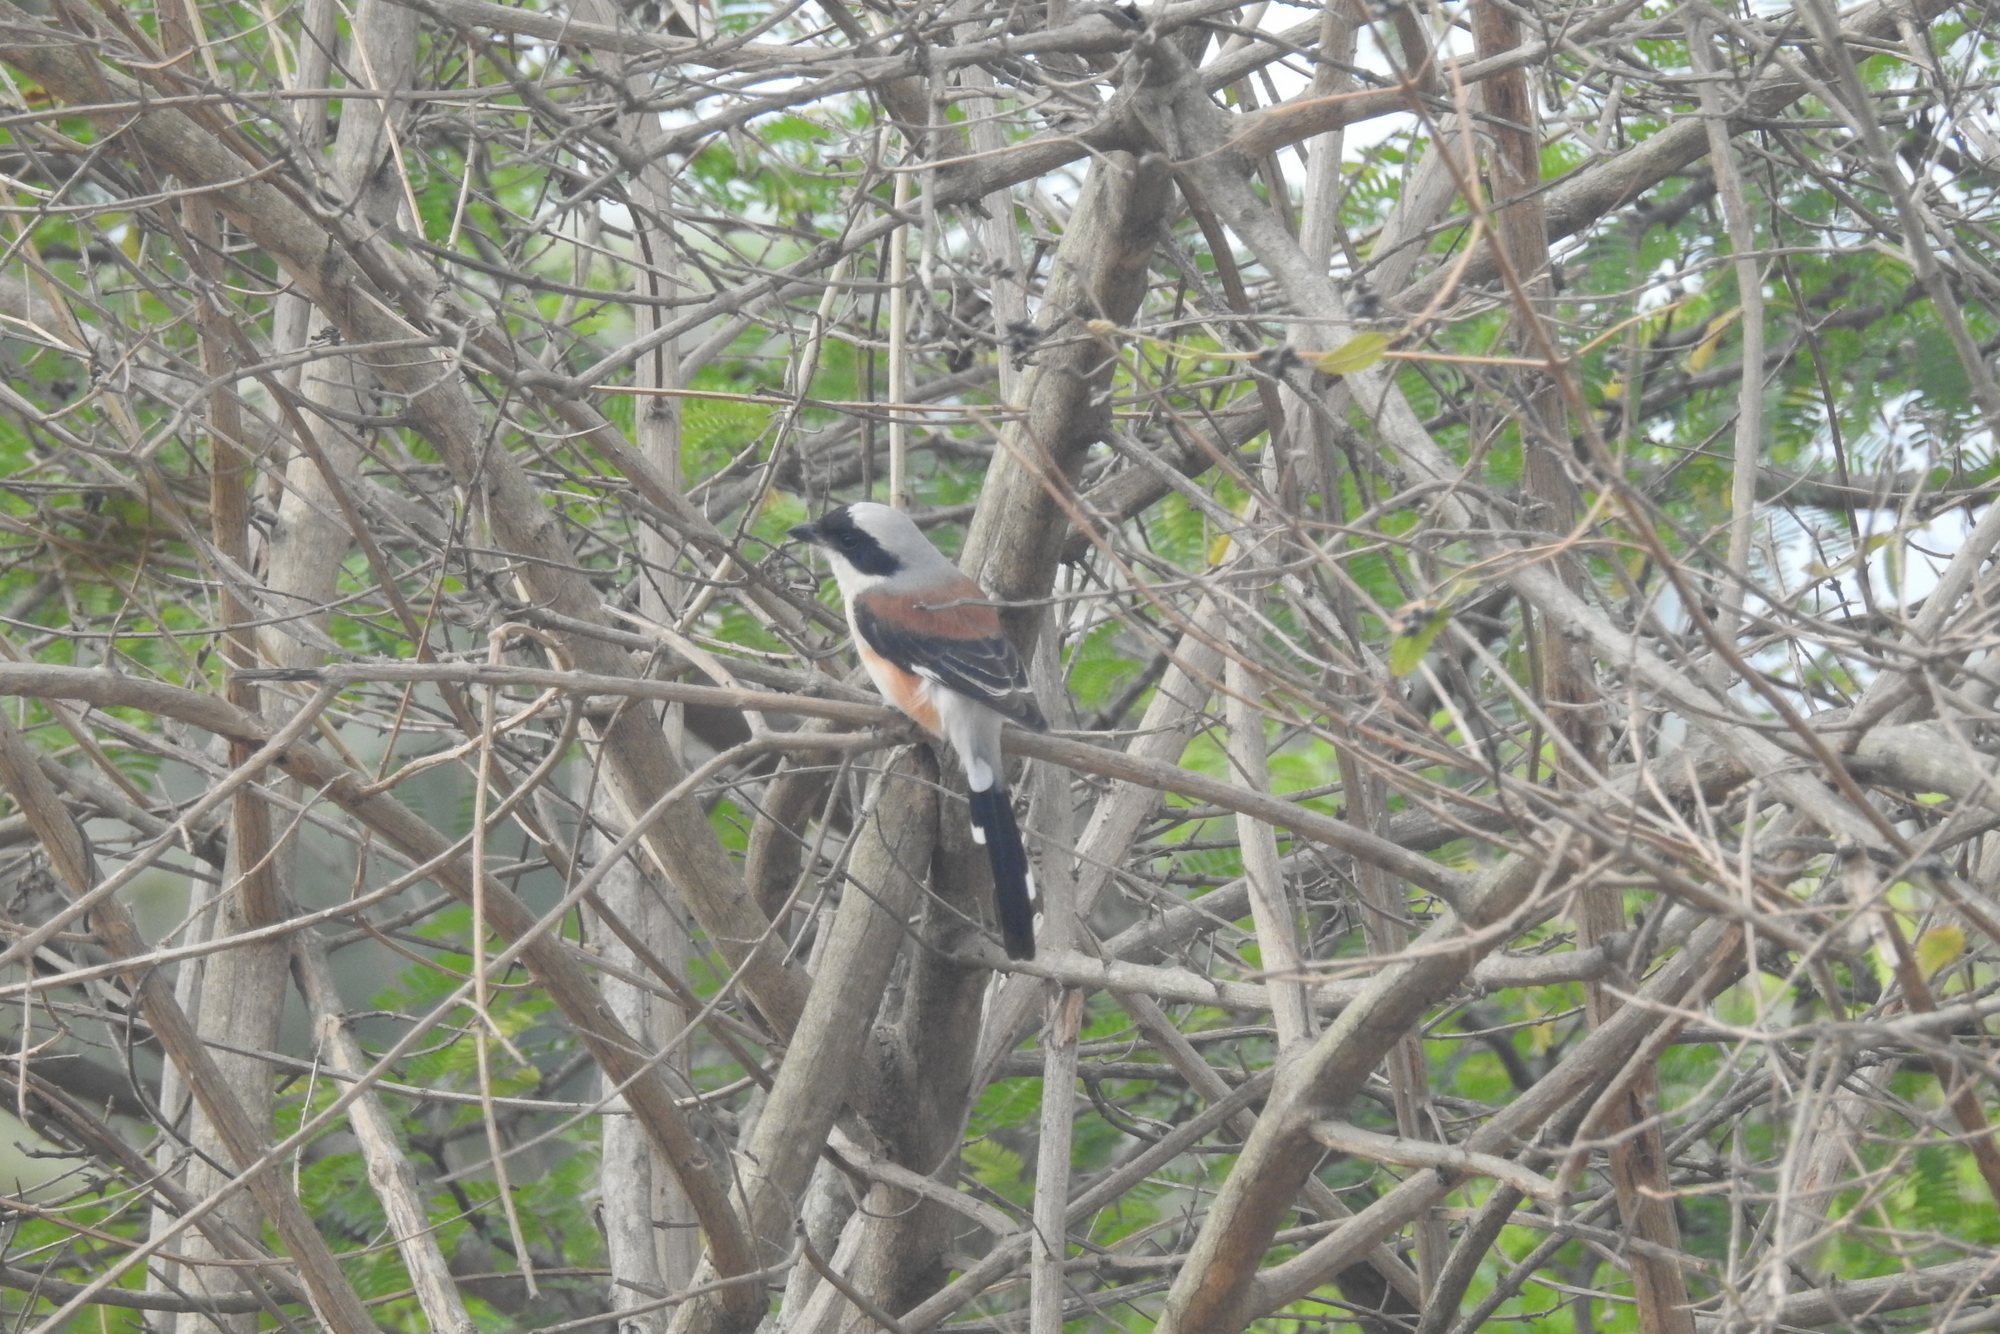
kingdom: Animalia
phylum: Chordata
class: Aves
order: Passeriformes
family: Laniidae
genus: Lanius
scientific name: Lanius vittatus
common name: Bay-backed shrike
